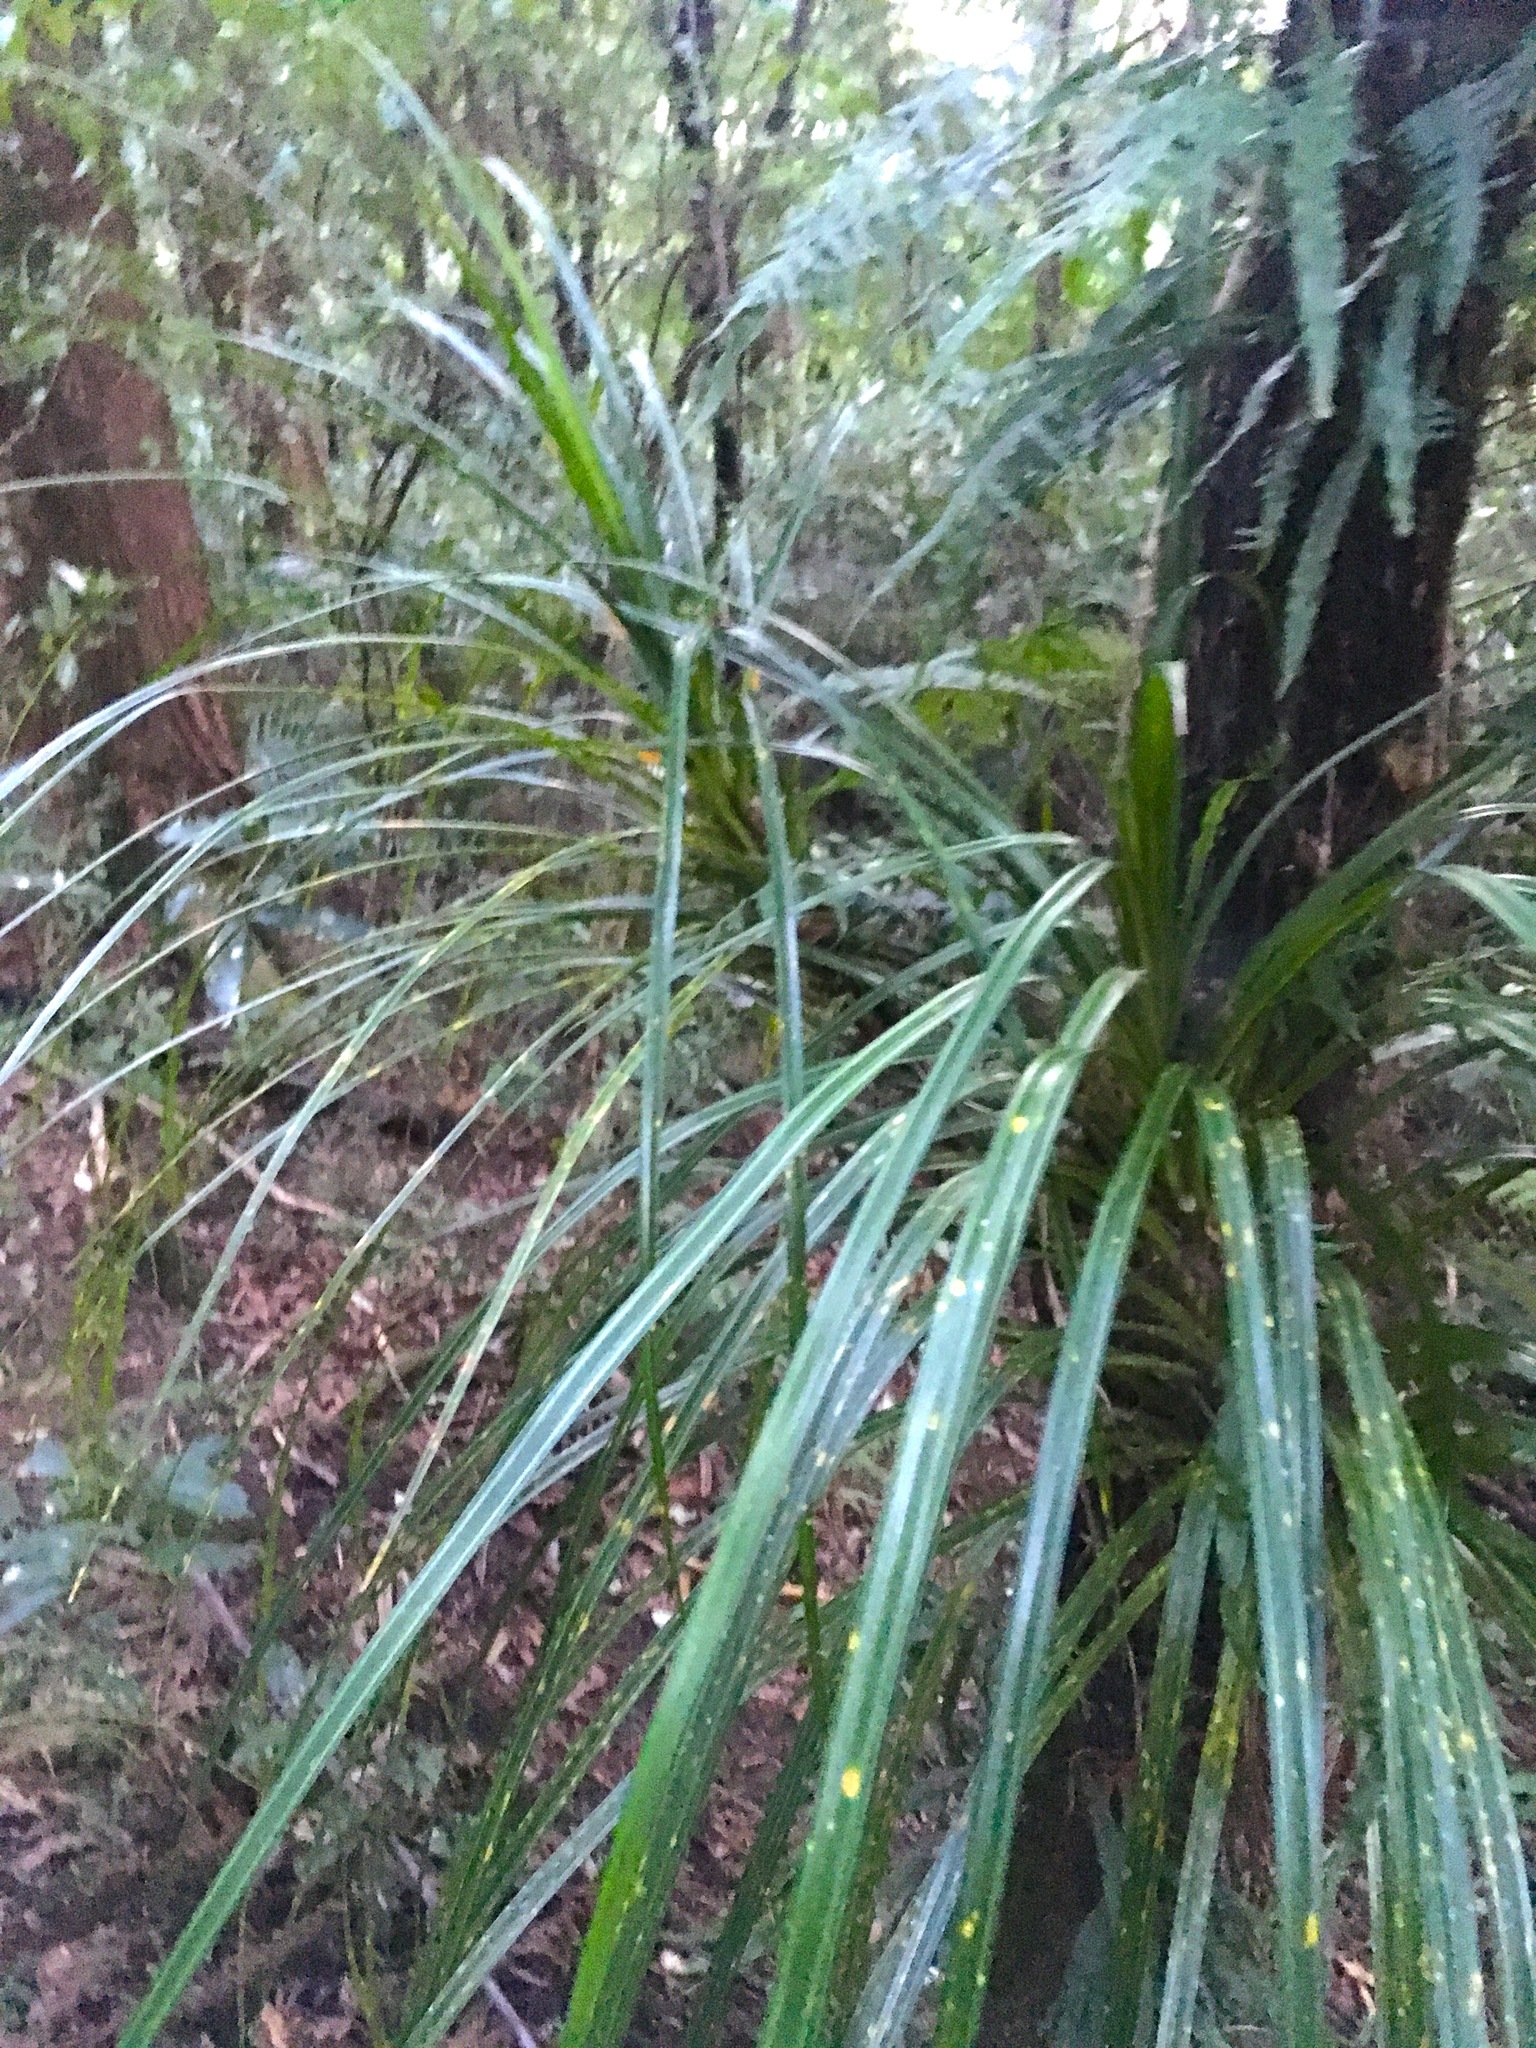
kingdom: Plantae
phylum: Tracheophyta
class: Liliopsida
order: Pandanales
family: Pandanaceae
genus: Freycinetia
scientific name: Freycinetia banksii
